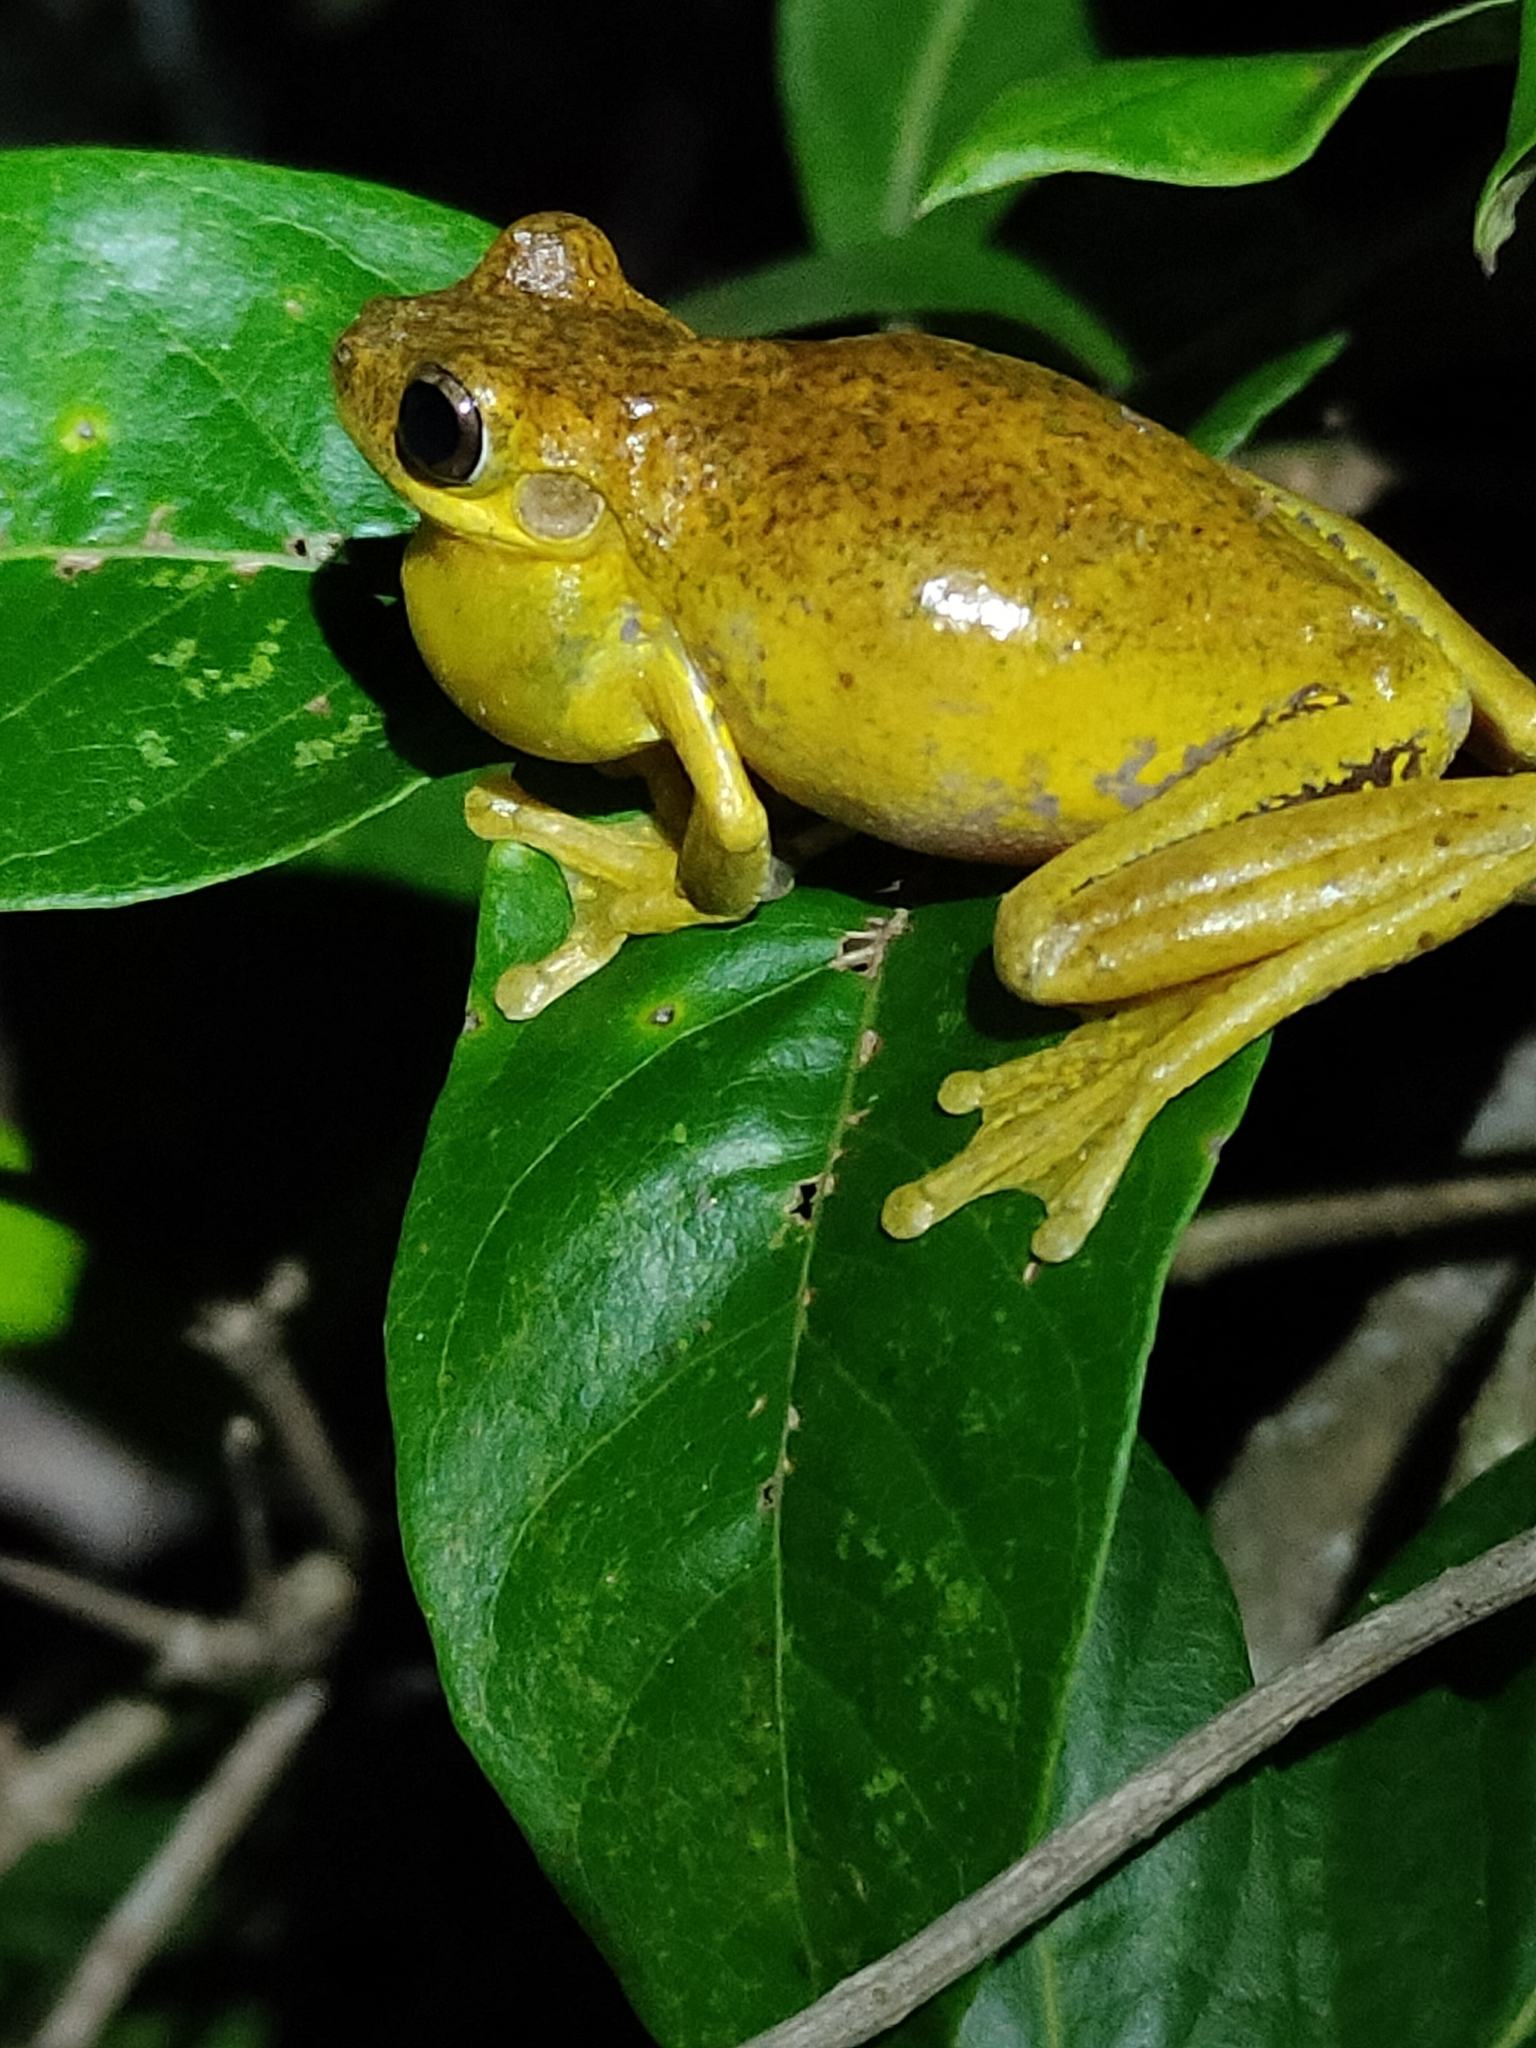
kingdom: Animalia
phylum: Chordata
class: Amphibia
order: Anura
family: Pelodryadidae
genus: Litoria
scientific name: Litoria tyleri
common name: Laughing tree frog
